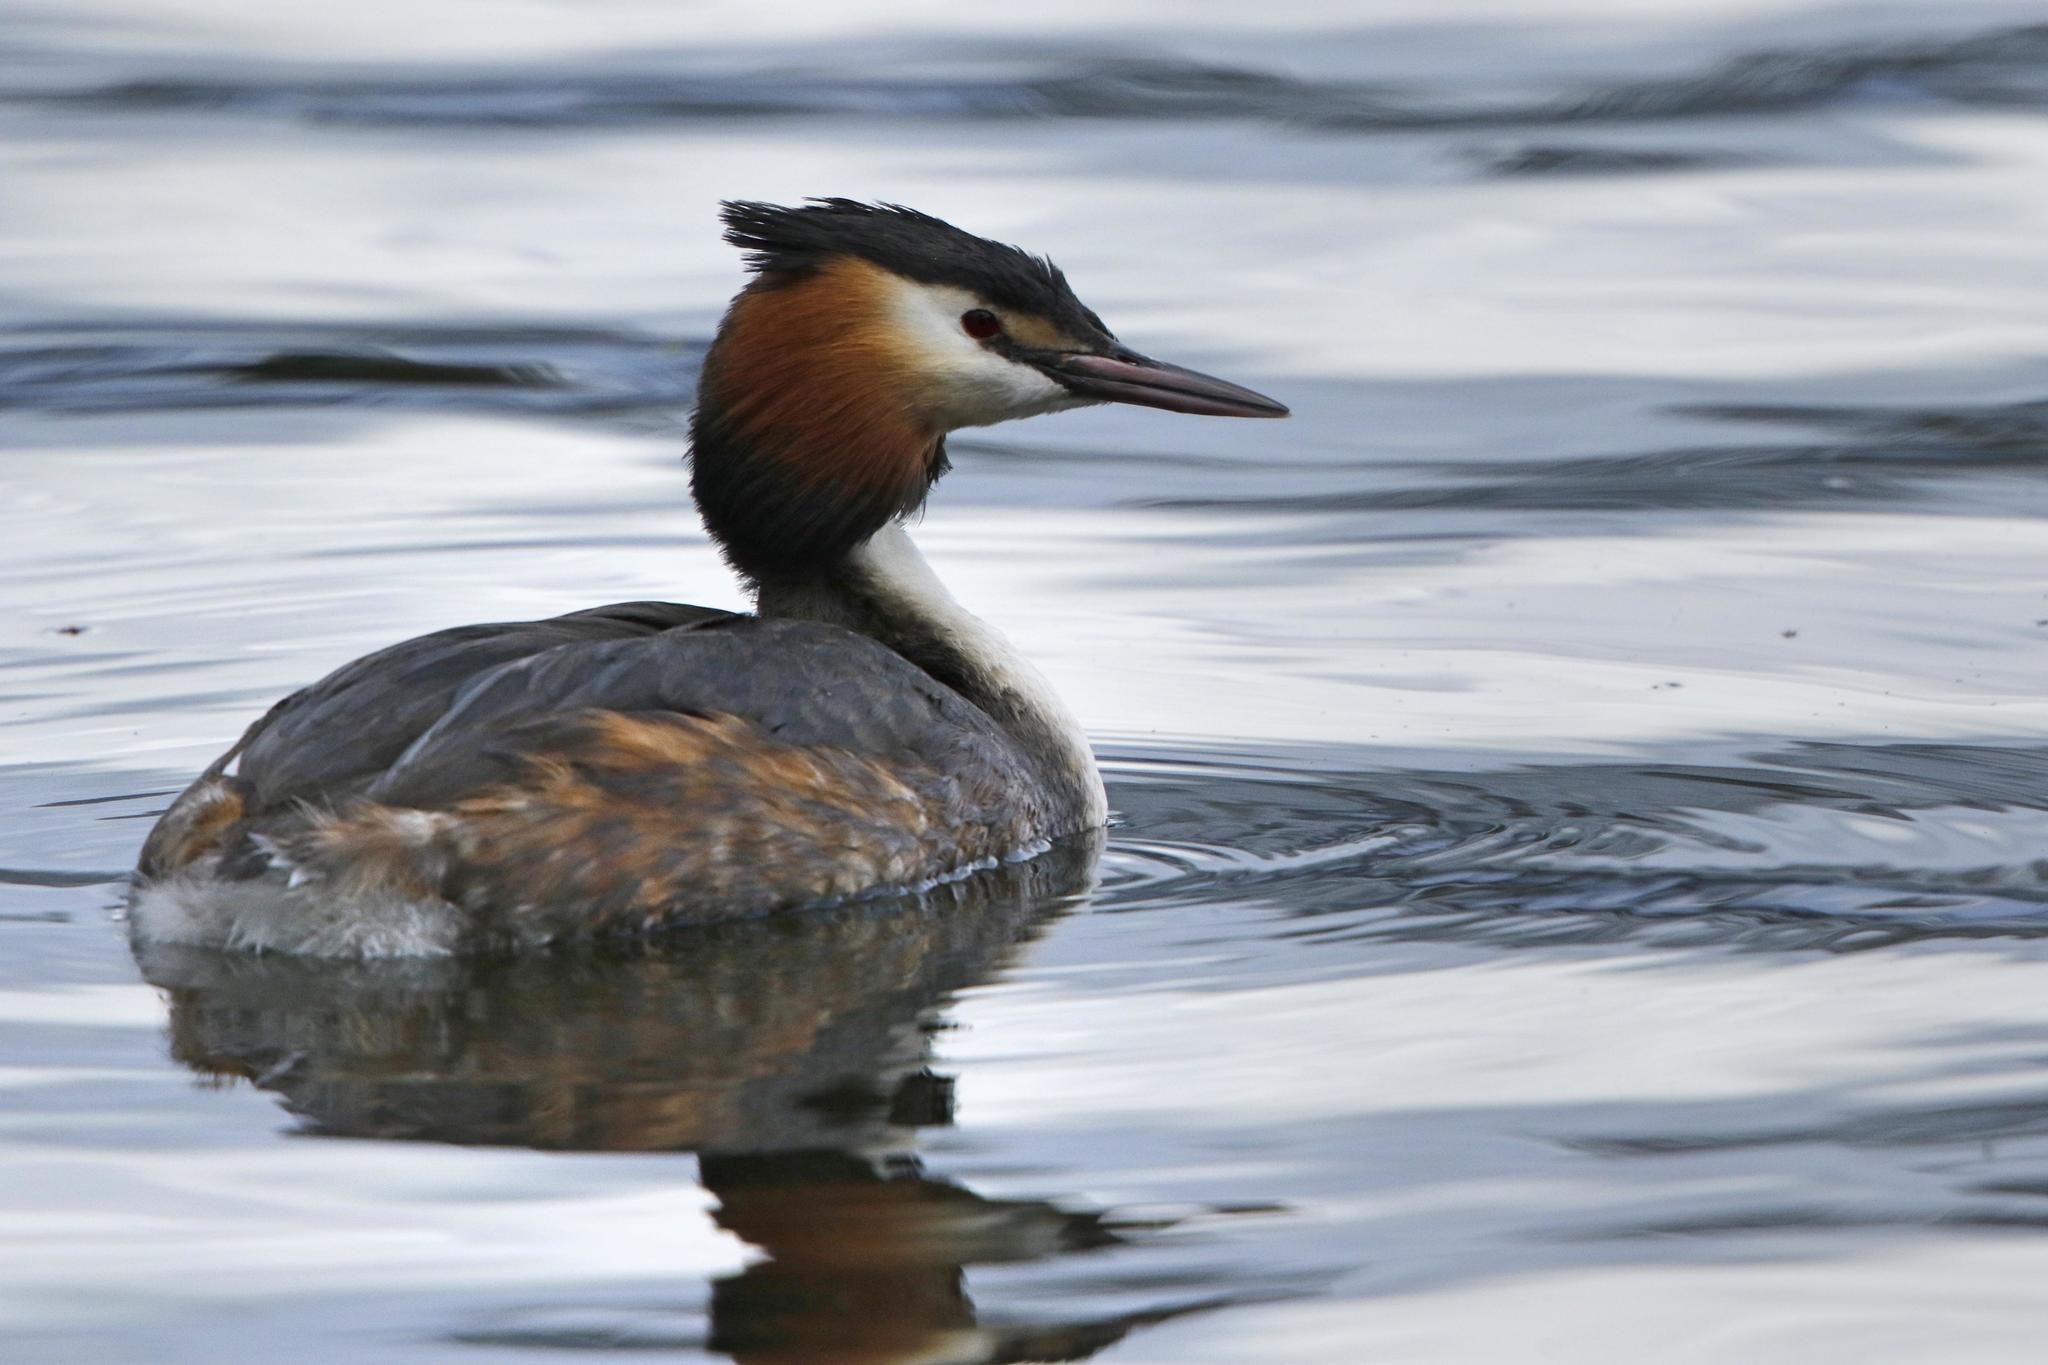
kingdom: Animalia
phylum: Chordata
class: Aves
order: Podicipediformes
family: Podicipedidae
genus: Podiceps
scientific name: Podiceps cristatus
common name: Great crested grebe
